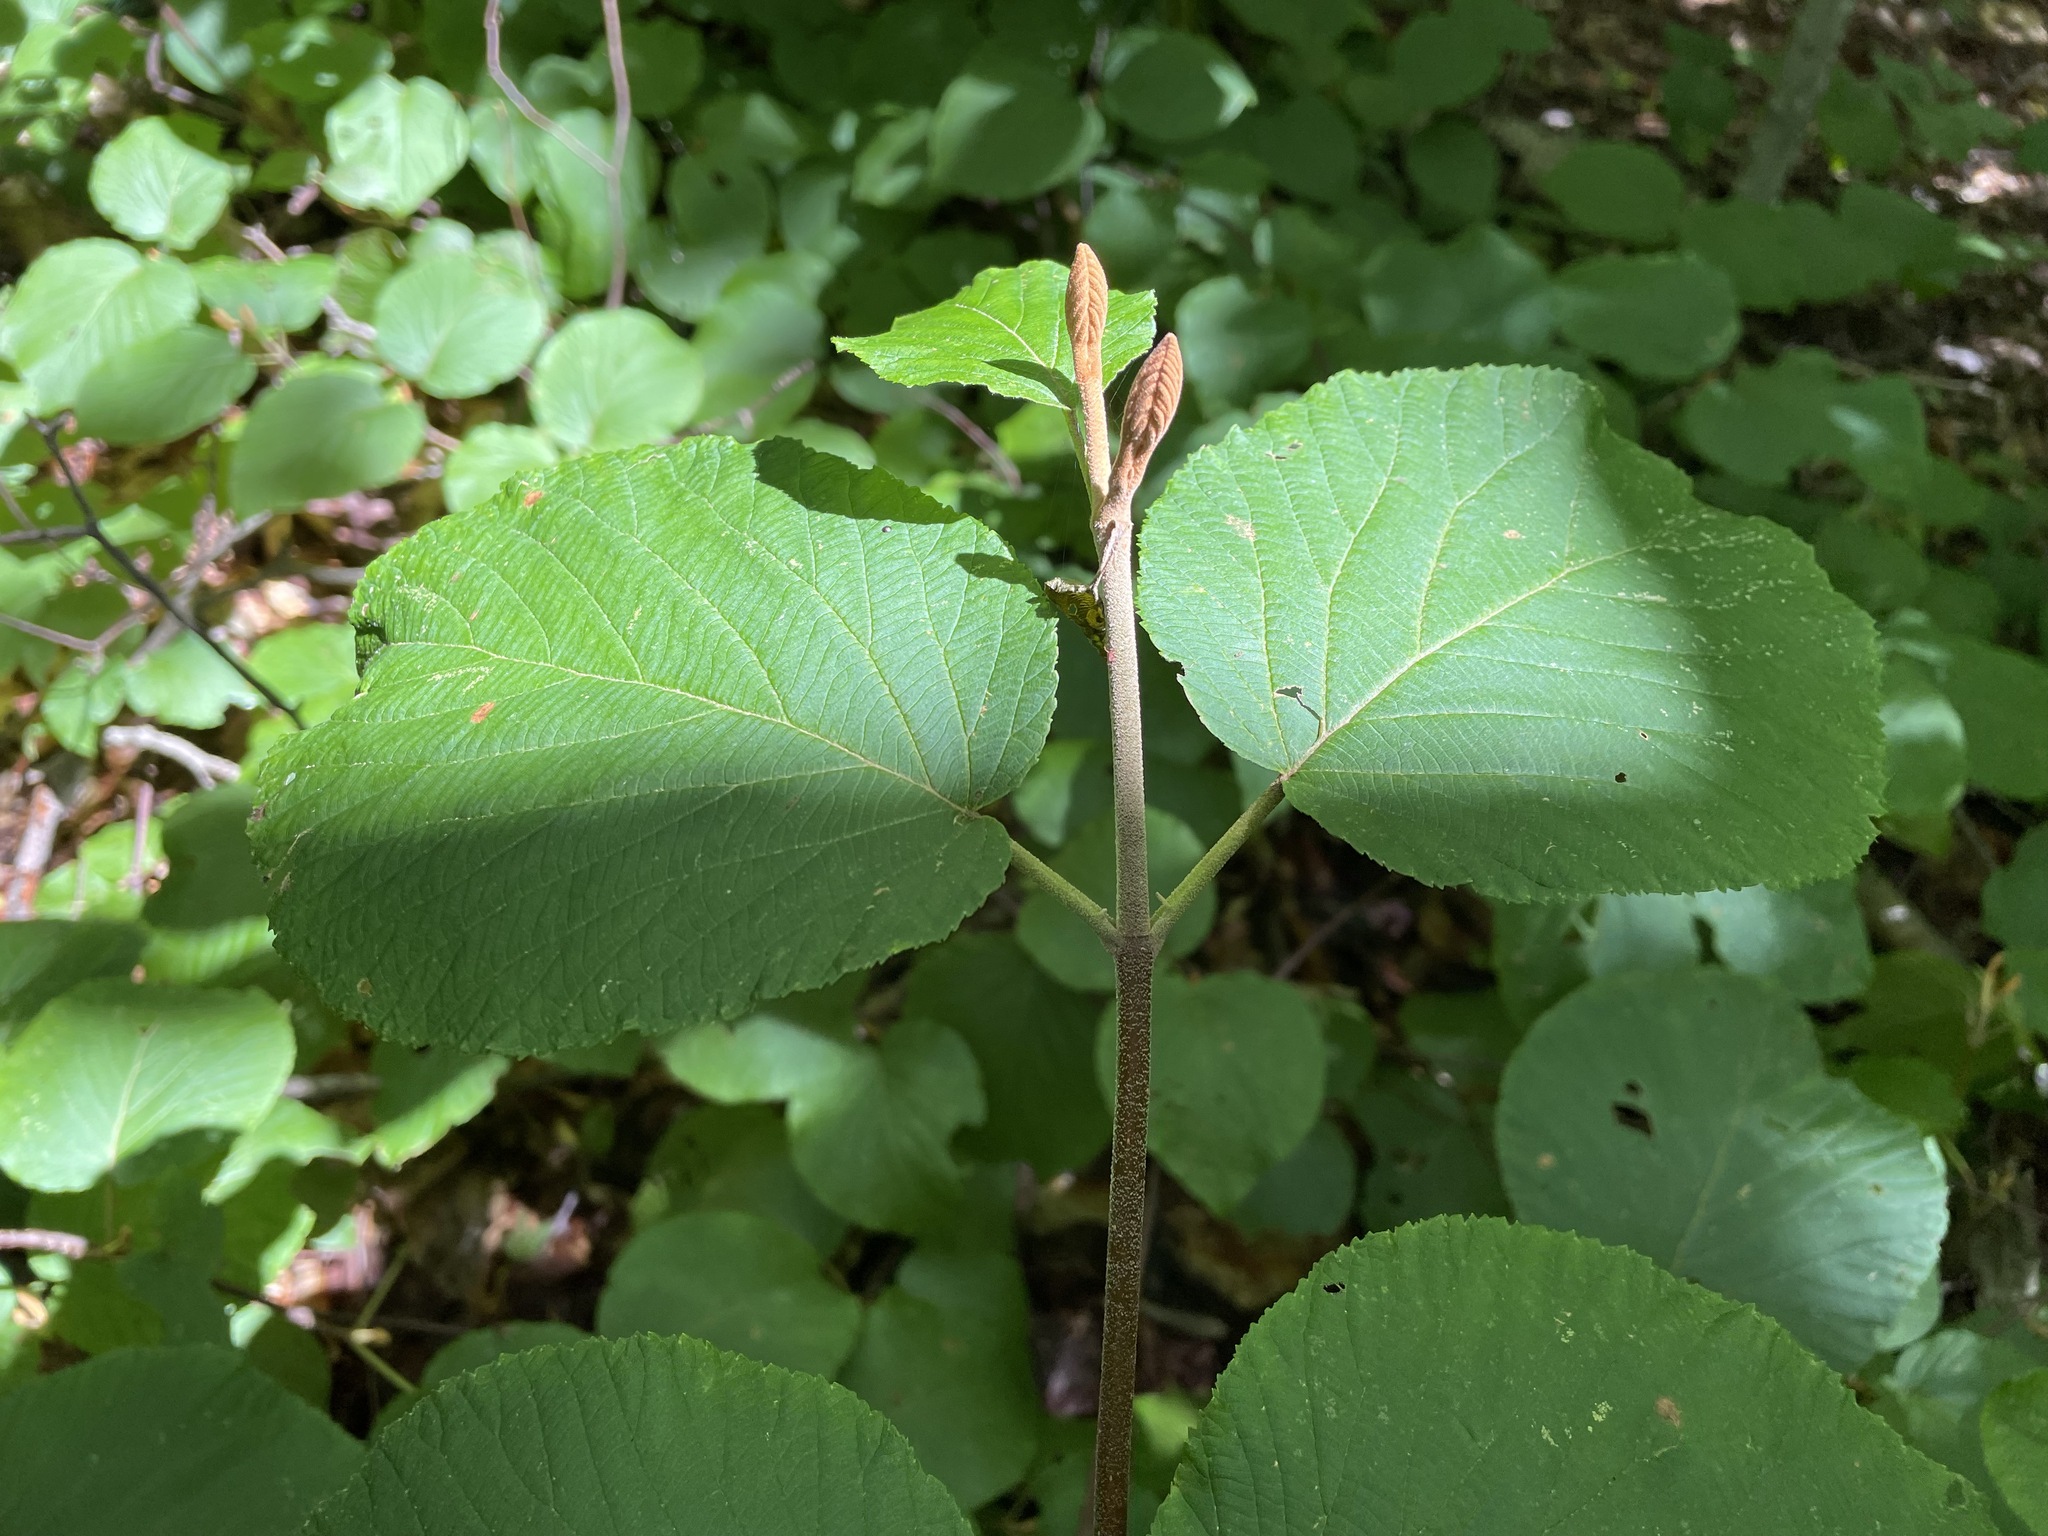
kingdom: Plantae
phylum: Tracheophyta
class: Magnoliopsida
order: Dipsacales
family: Viburnaceae
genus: Viburnum
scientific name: Viburnum lantanoides
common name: Hobblebush
